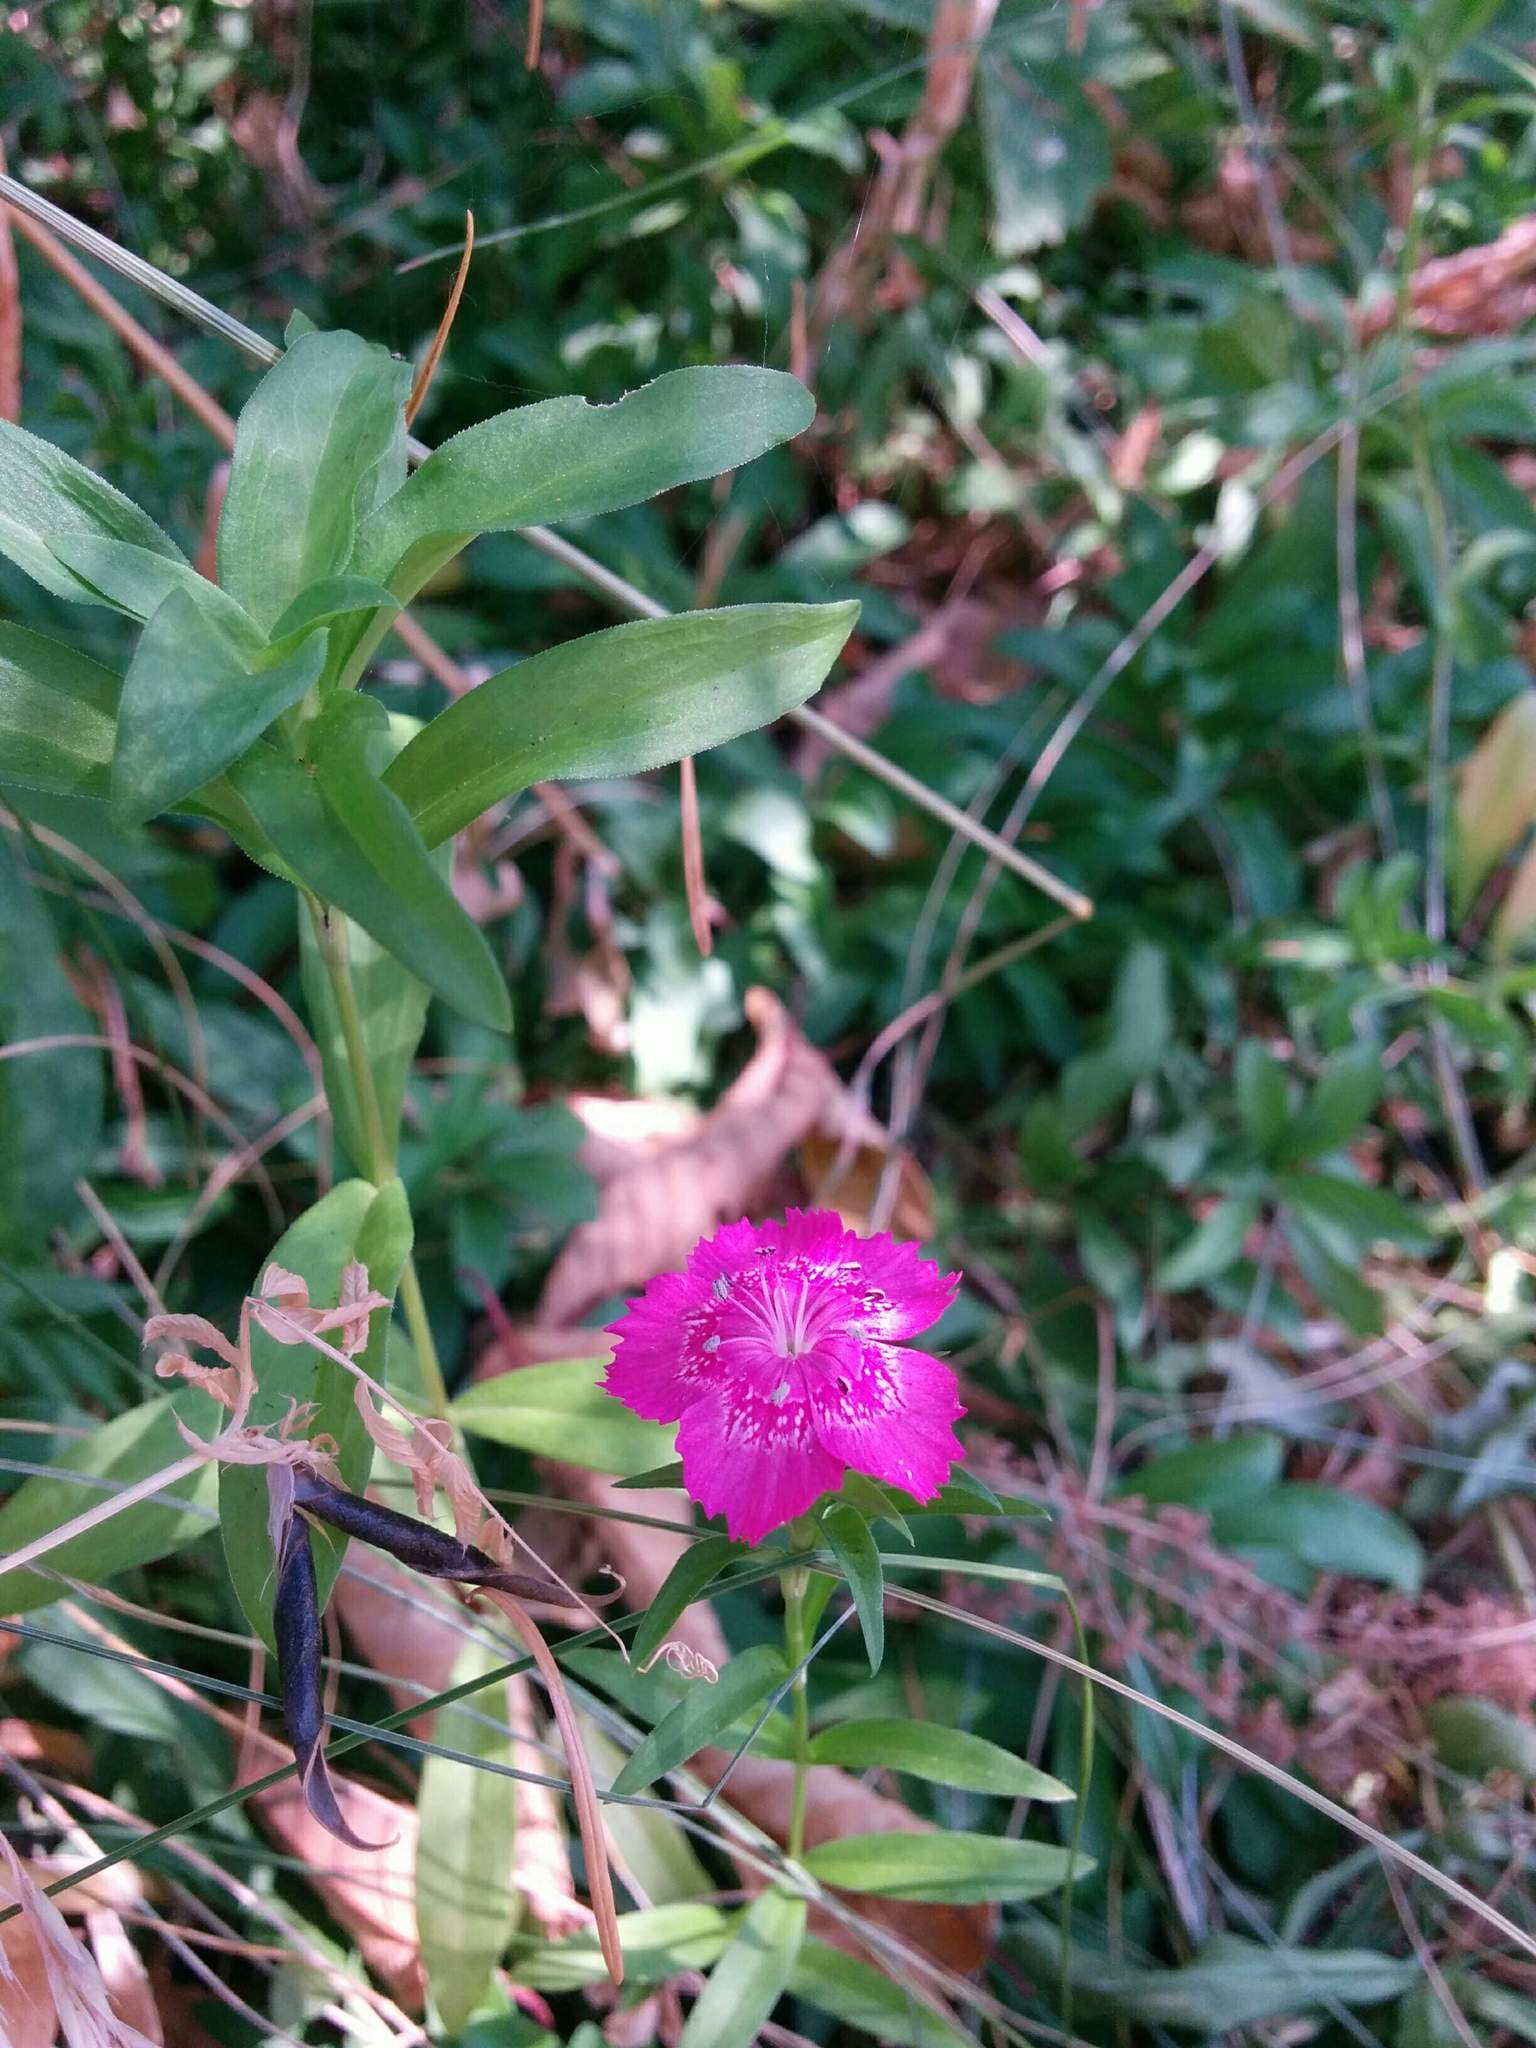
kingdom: Plantae
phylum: Tracheophyta
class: Magnoliopsida
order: Caryophyllales
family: Caryophyllaceae
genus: Dianthus
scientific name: Dianthus armeria
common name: Deptford pink
